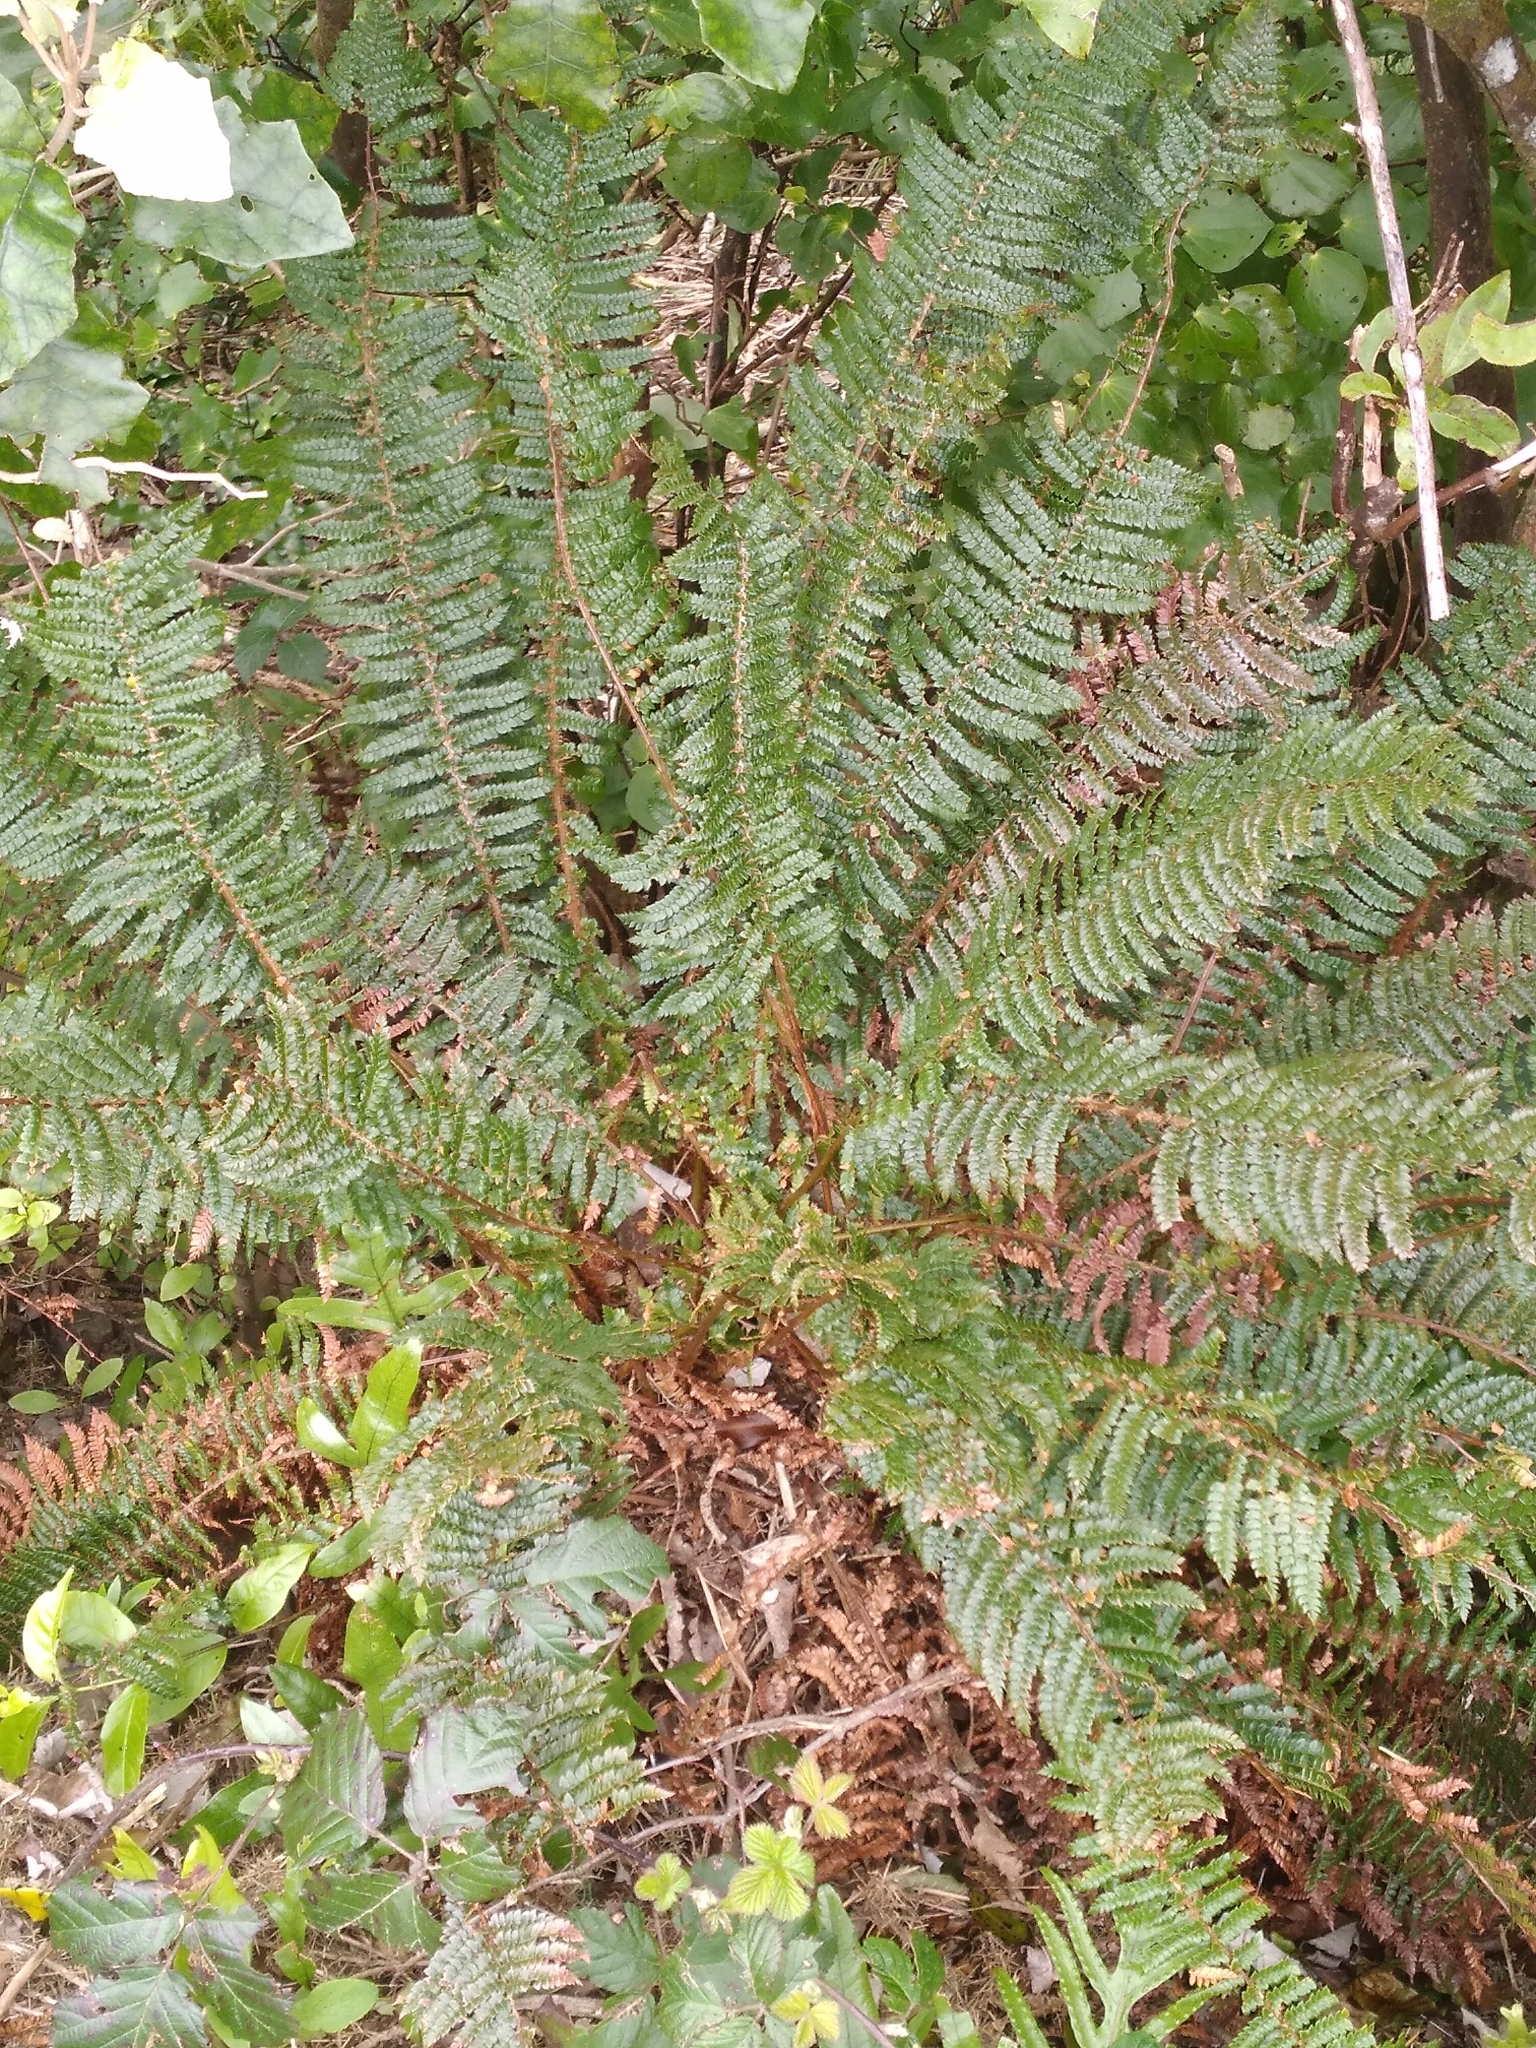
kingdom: Plantae
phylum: Tracheophyta
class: Polypodiopsida
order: Polypodiales
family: Dryopteridaceae
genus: Polystichum
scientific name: Polystichum vestitum
